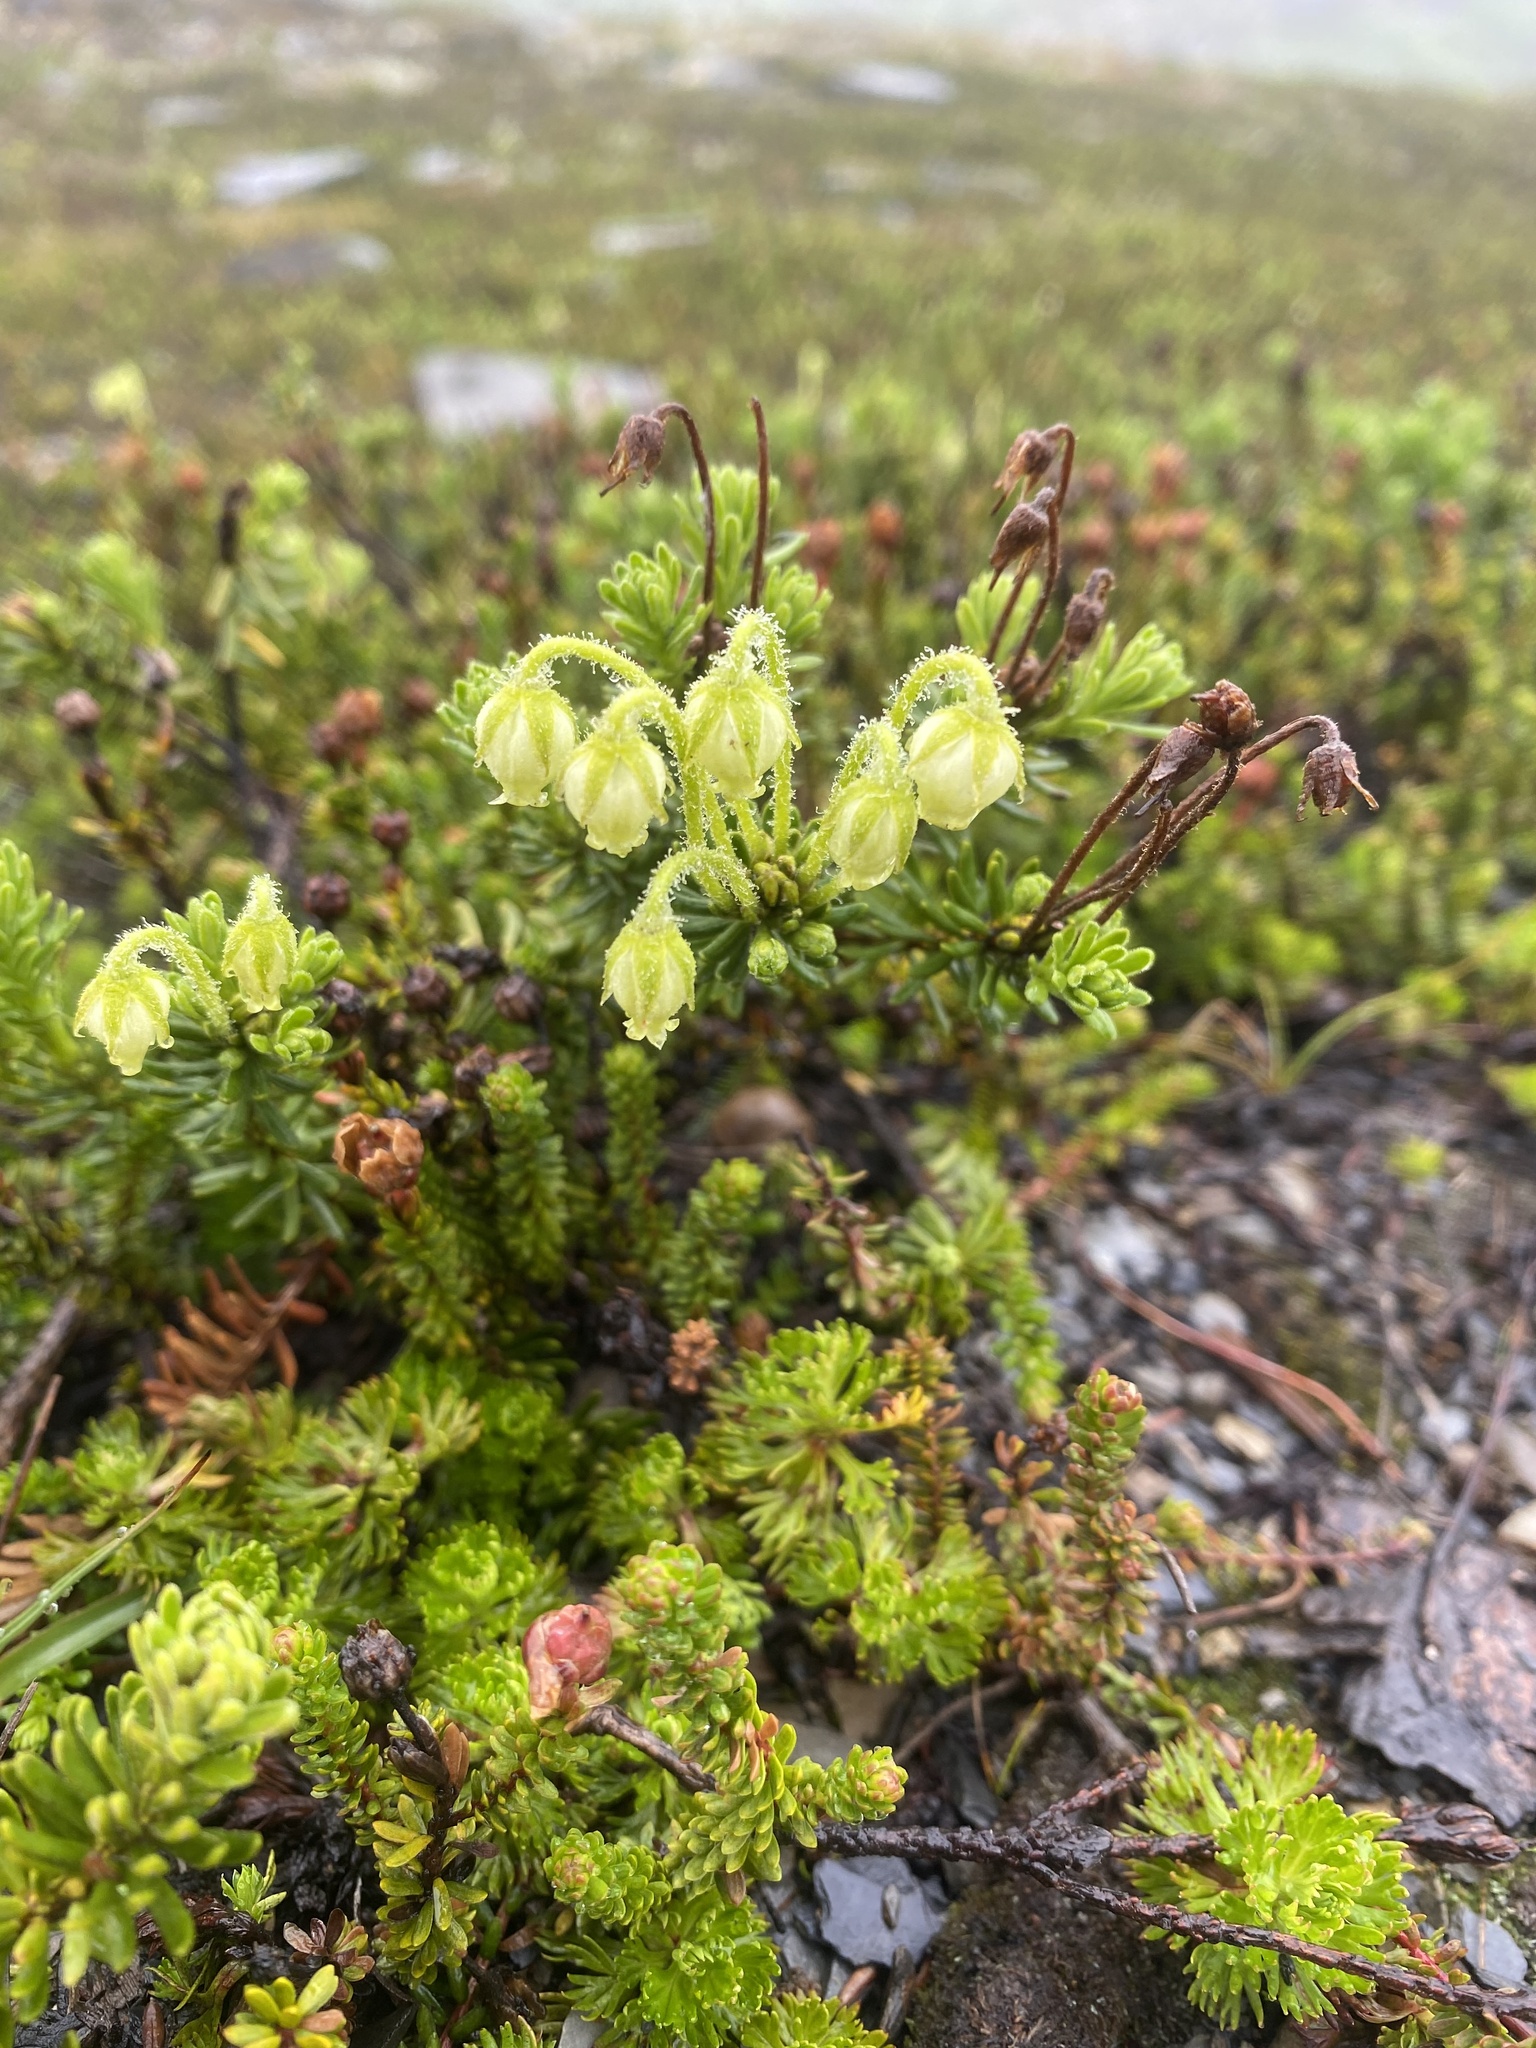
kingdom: Plantae
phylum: Tracheophyta
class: Magnoliopsida
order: Ericales
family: Ericaceae
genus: Phyllodoce
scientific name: Phyllodoce glanduliflora
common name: Cream mountain heather
